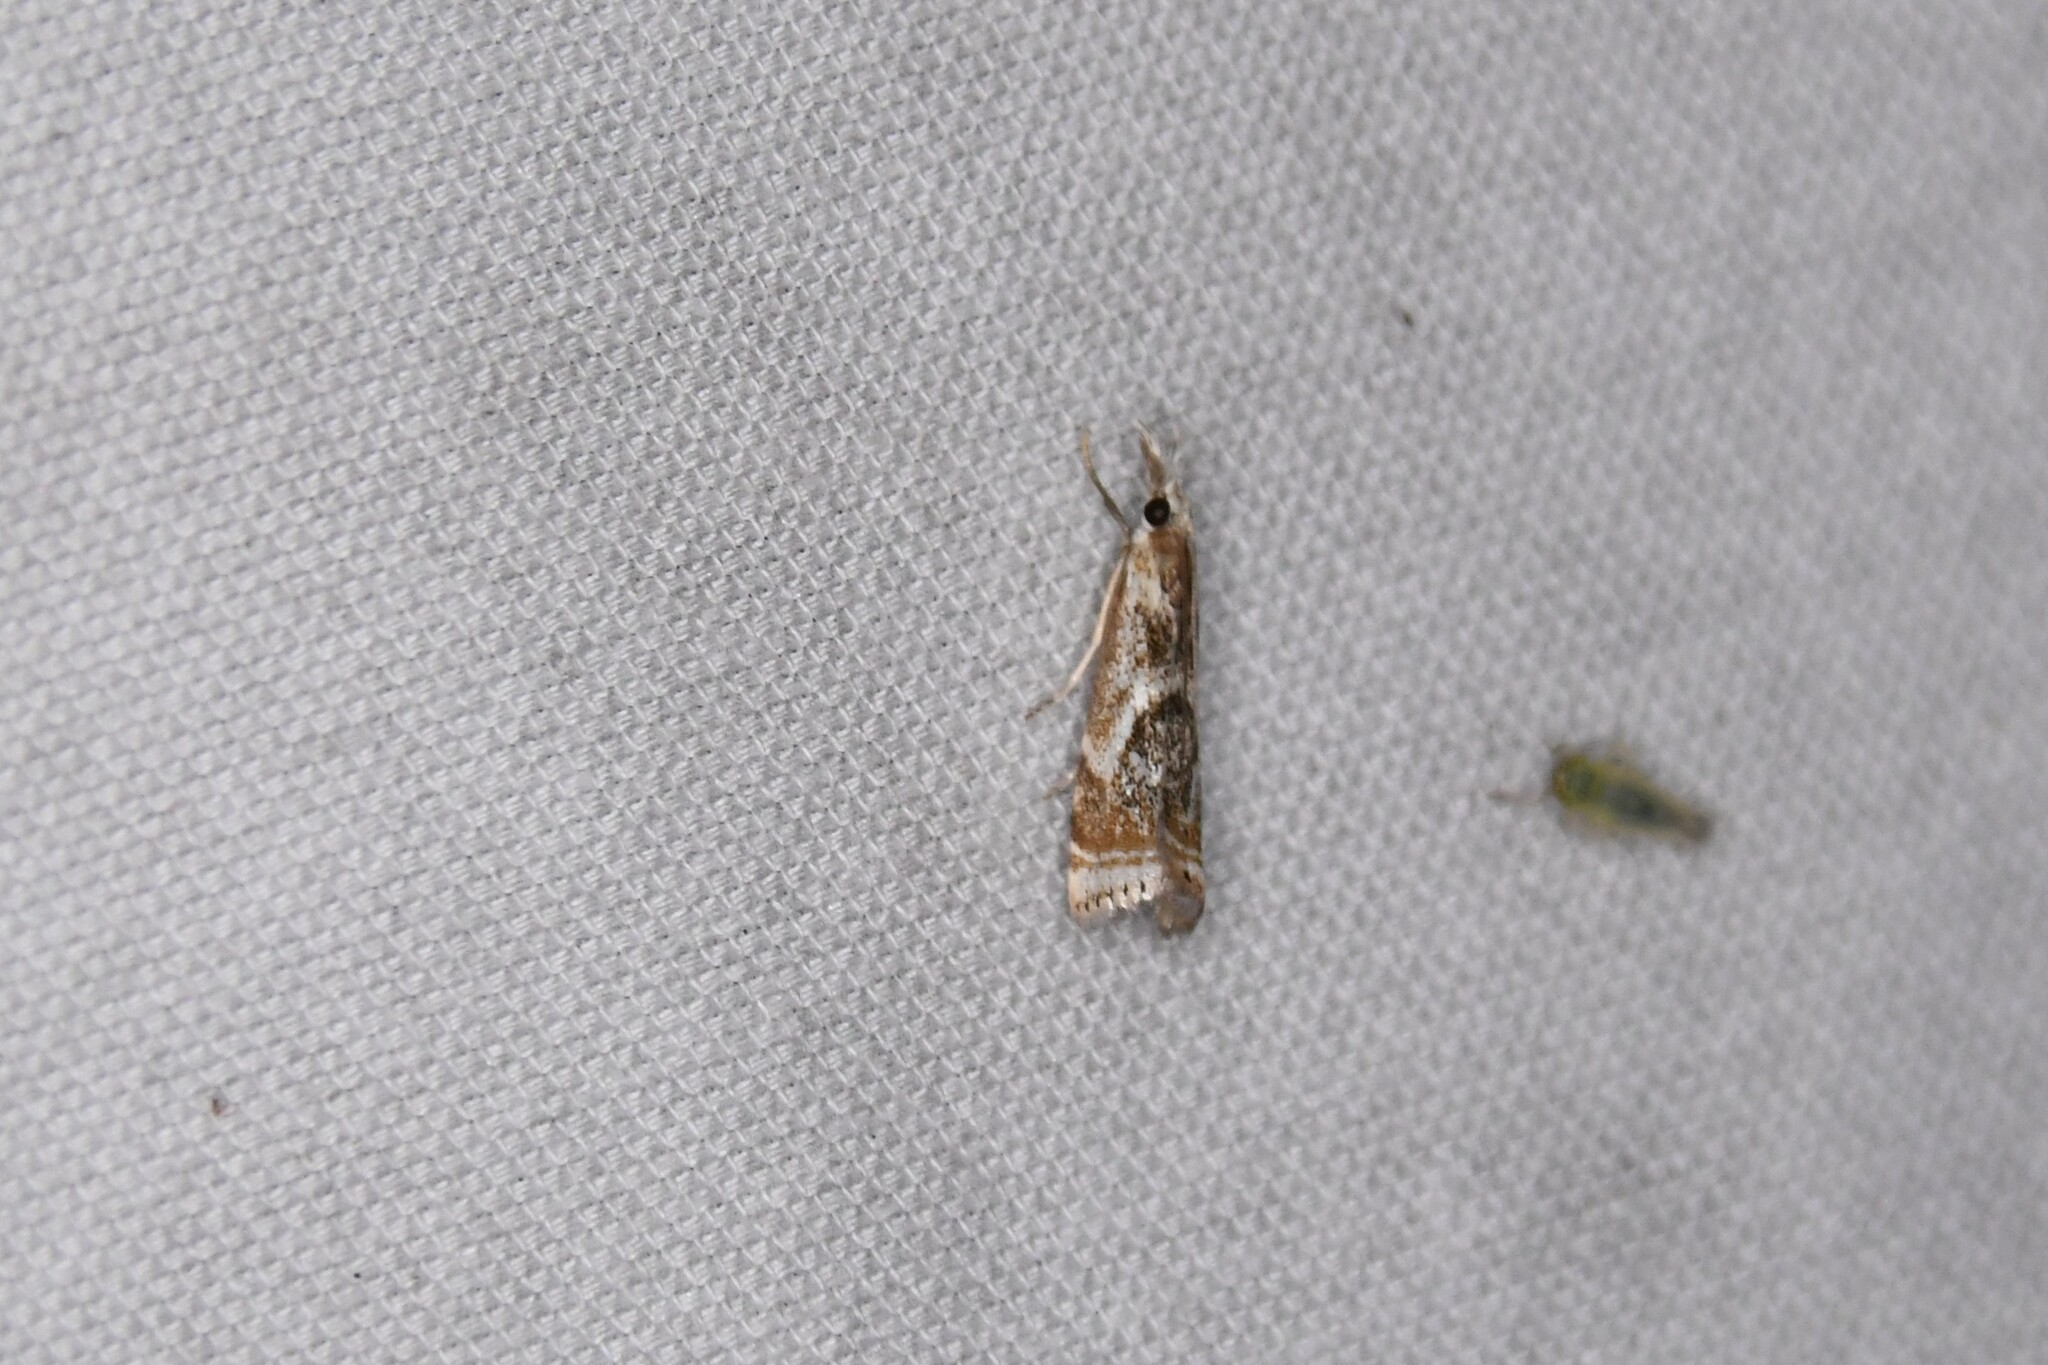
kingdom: Animalia
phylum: Arthropoda
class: Insecta
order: Lepidoptera
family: Crambidae
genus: Microcrambus
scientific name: Microcrambus elegans
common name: Elegant grass-veneer
